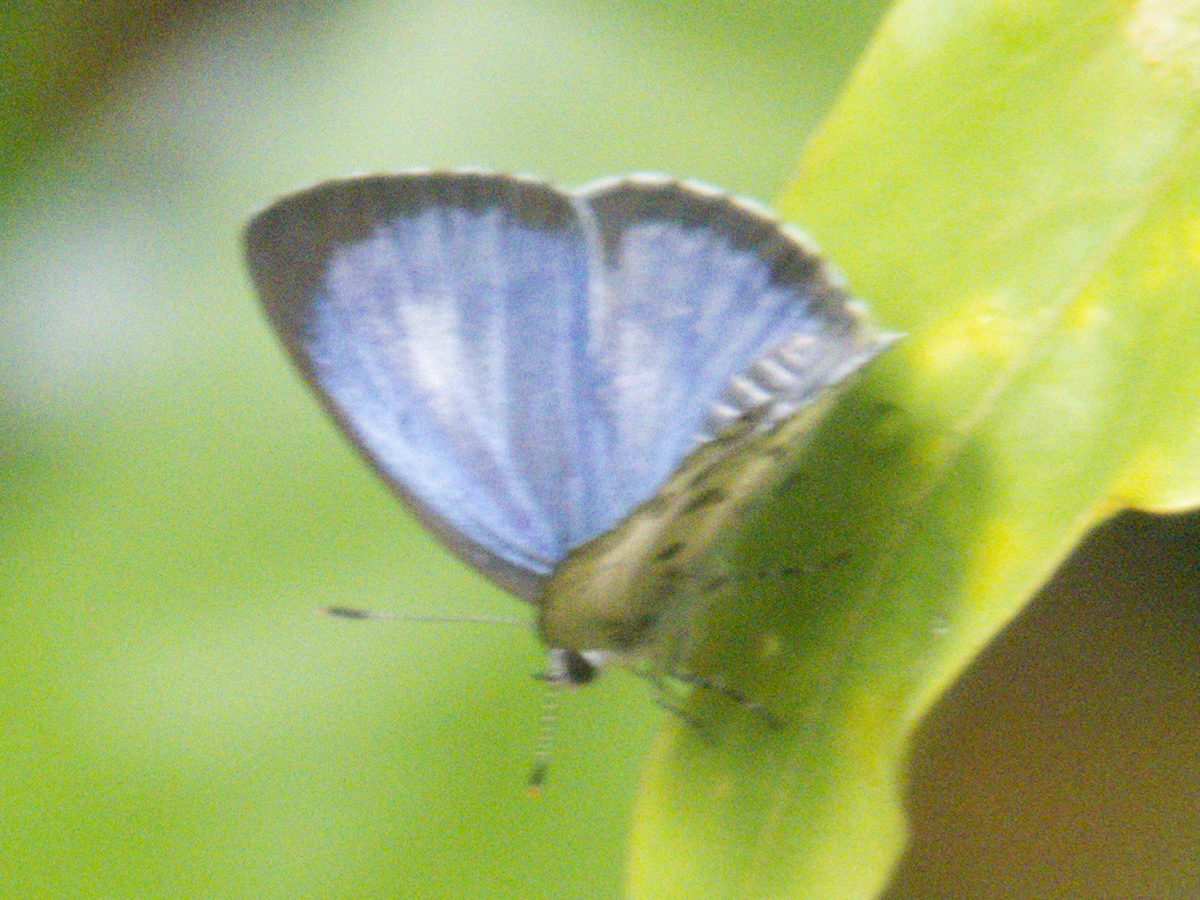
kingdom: Animalia
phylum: Arthropoda
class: Insecta
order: Lepidoptera
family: Lycaenidae
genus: Acytolepis
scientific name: Acytolepis puspa
